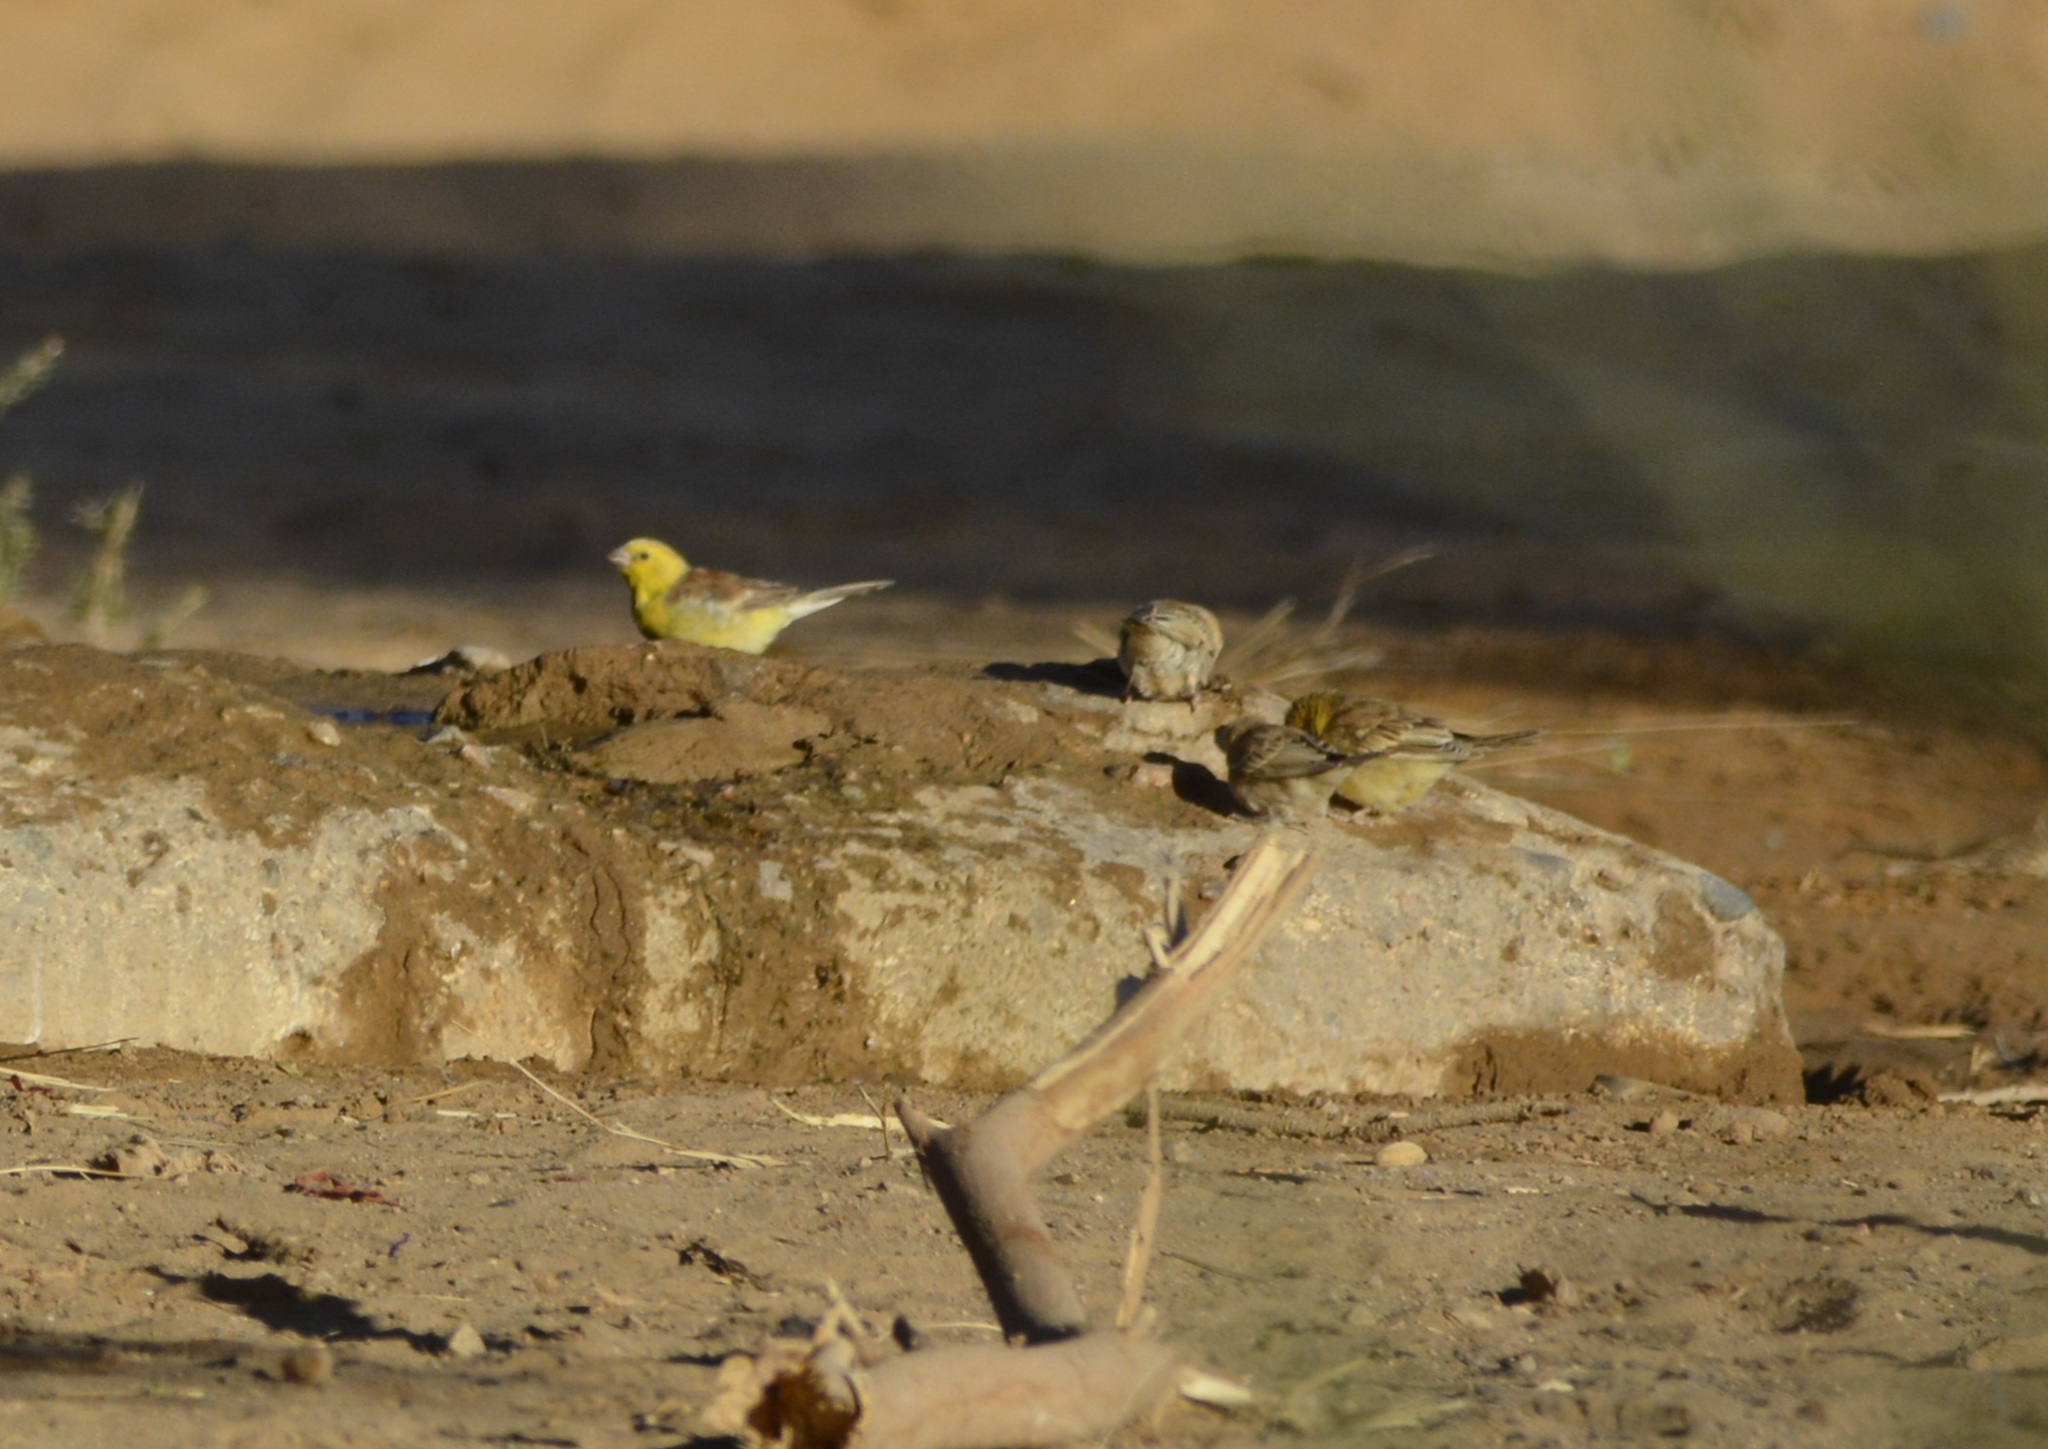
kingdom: Animalia
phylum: Chordata
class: Aves
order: Passeriformes
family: Passeridae
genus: Passer
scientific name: Passer luteus
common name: Sudan golden sparrow
